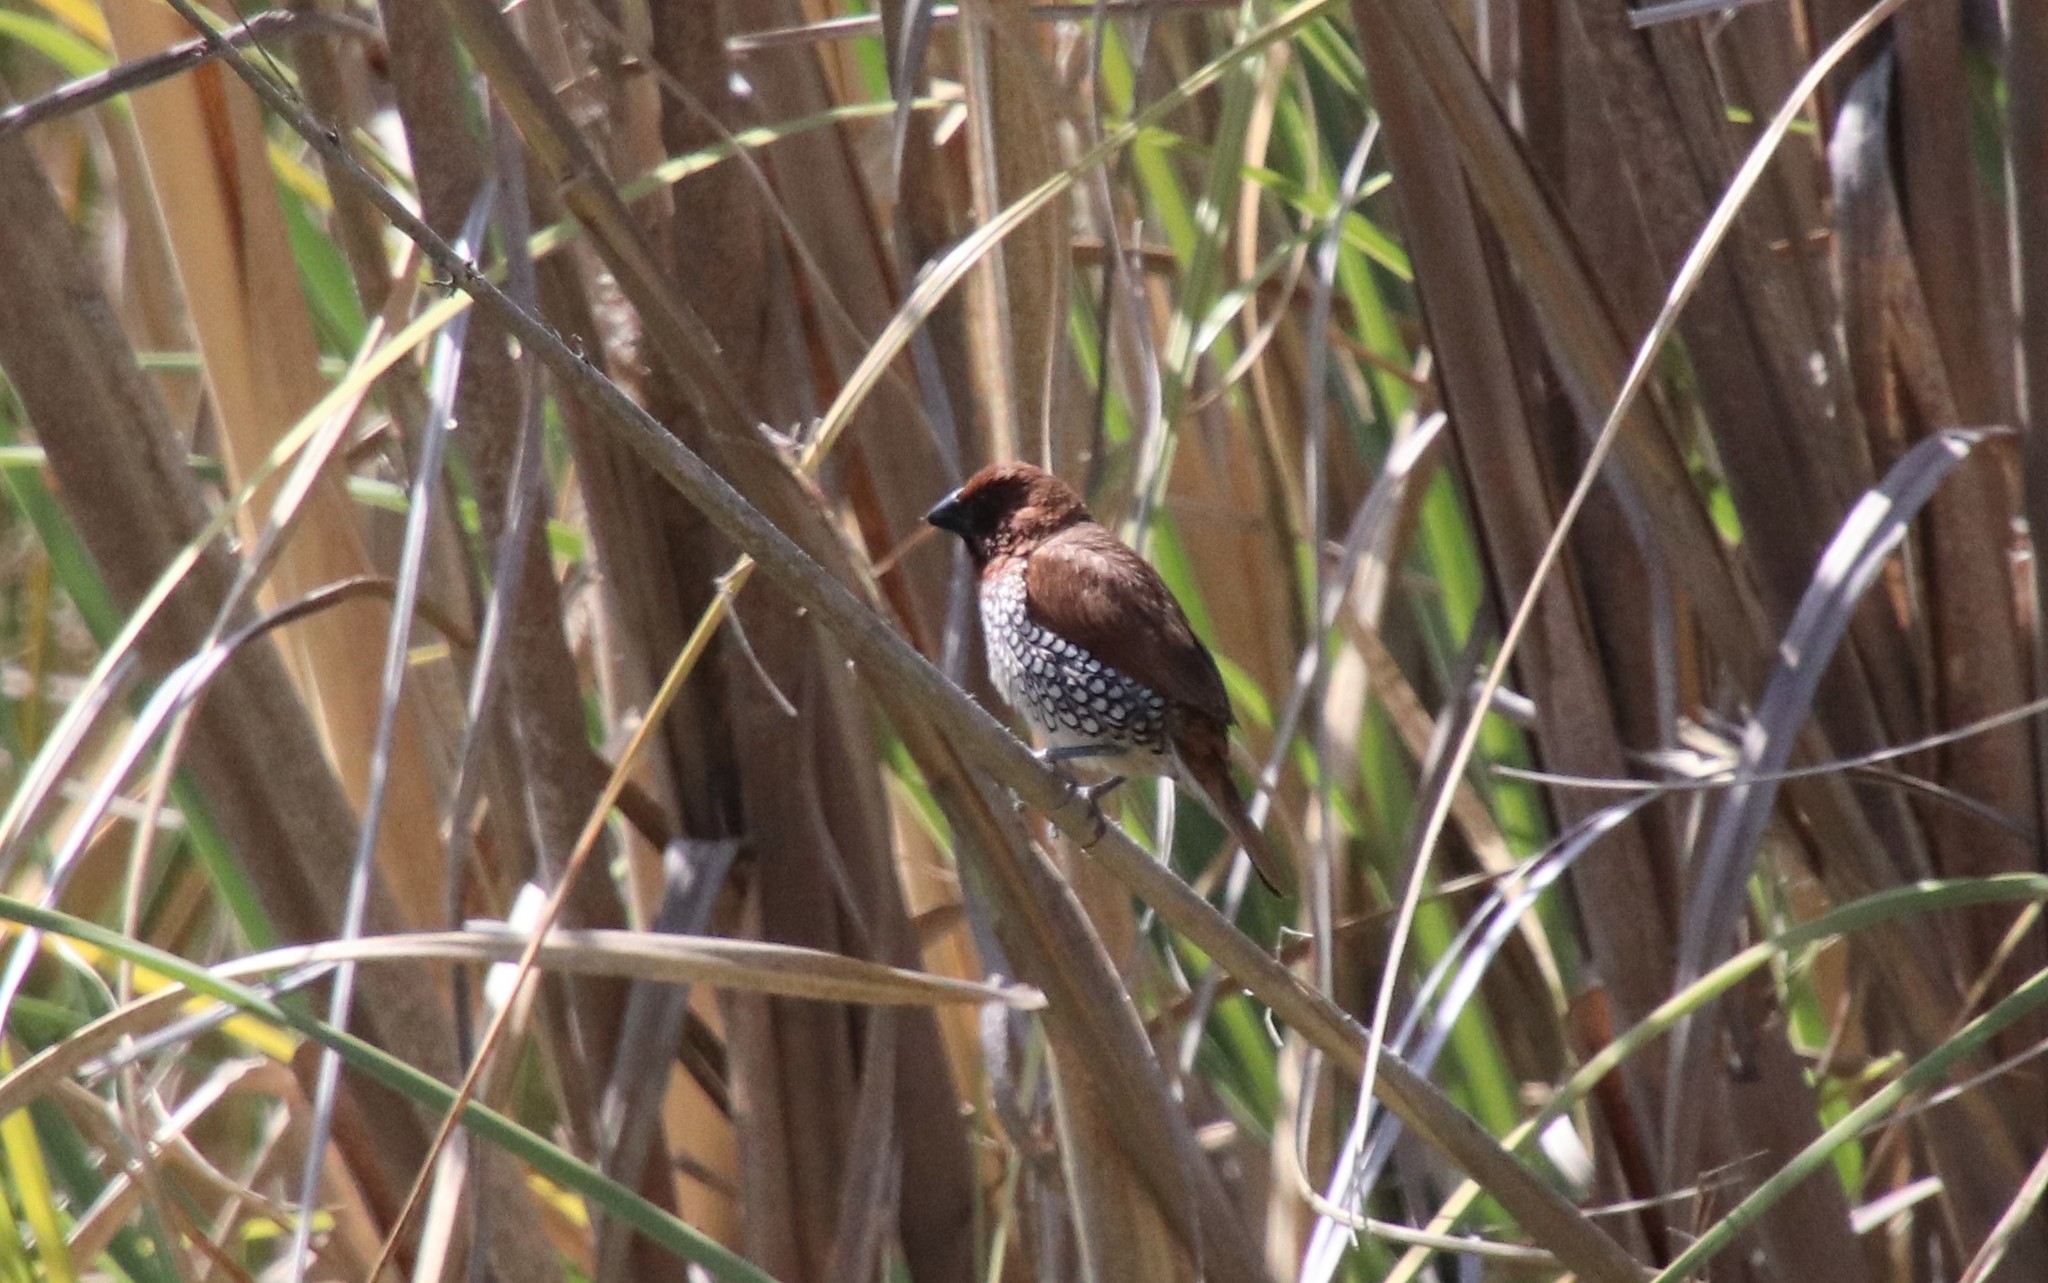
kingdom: Animalia
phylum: Chordata
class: Aves
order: Passeriformes
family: Estrildidae
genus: Lonchura
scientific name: Lonchura punctulata
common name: Scaly-breasted munia
